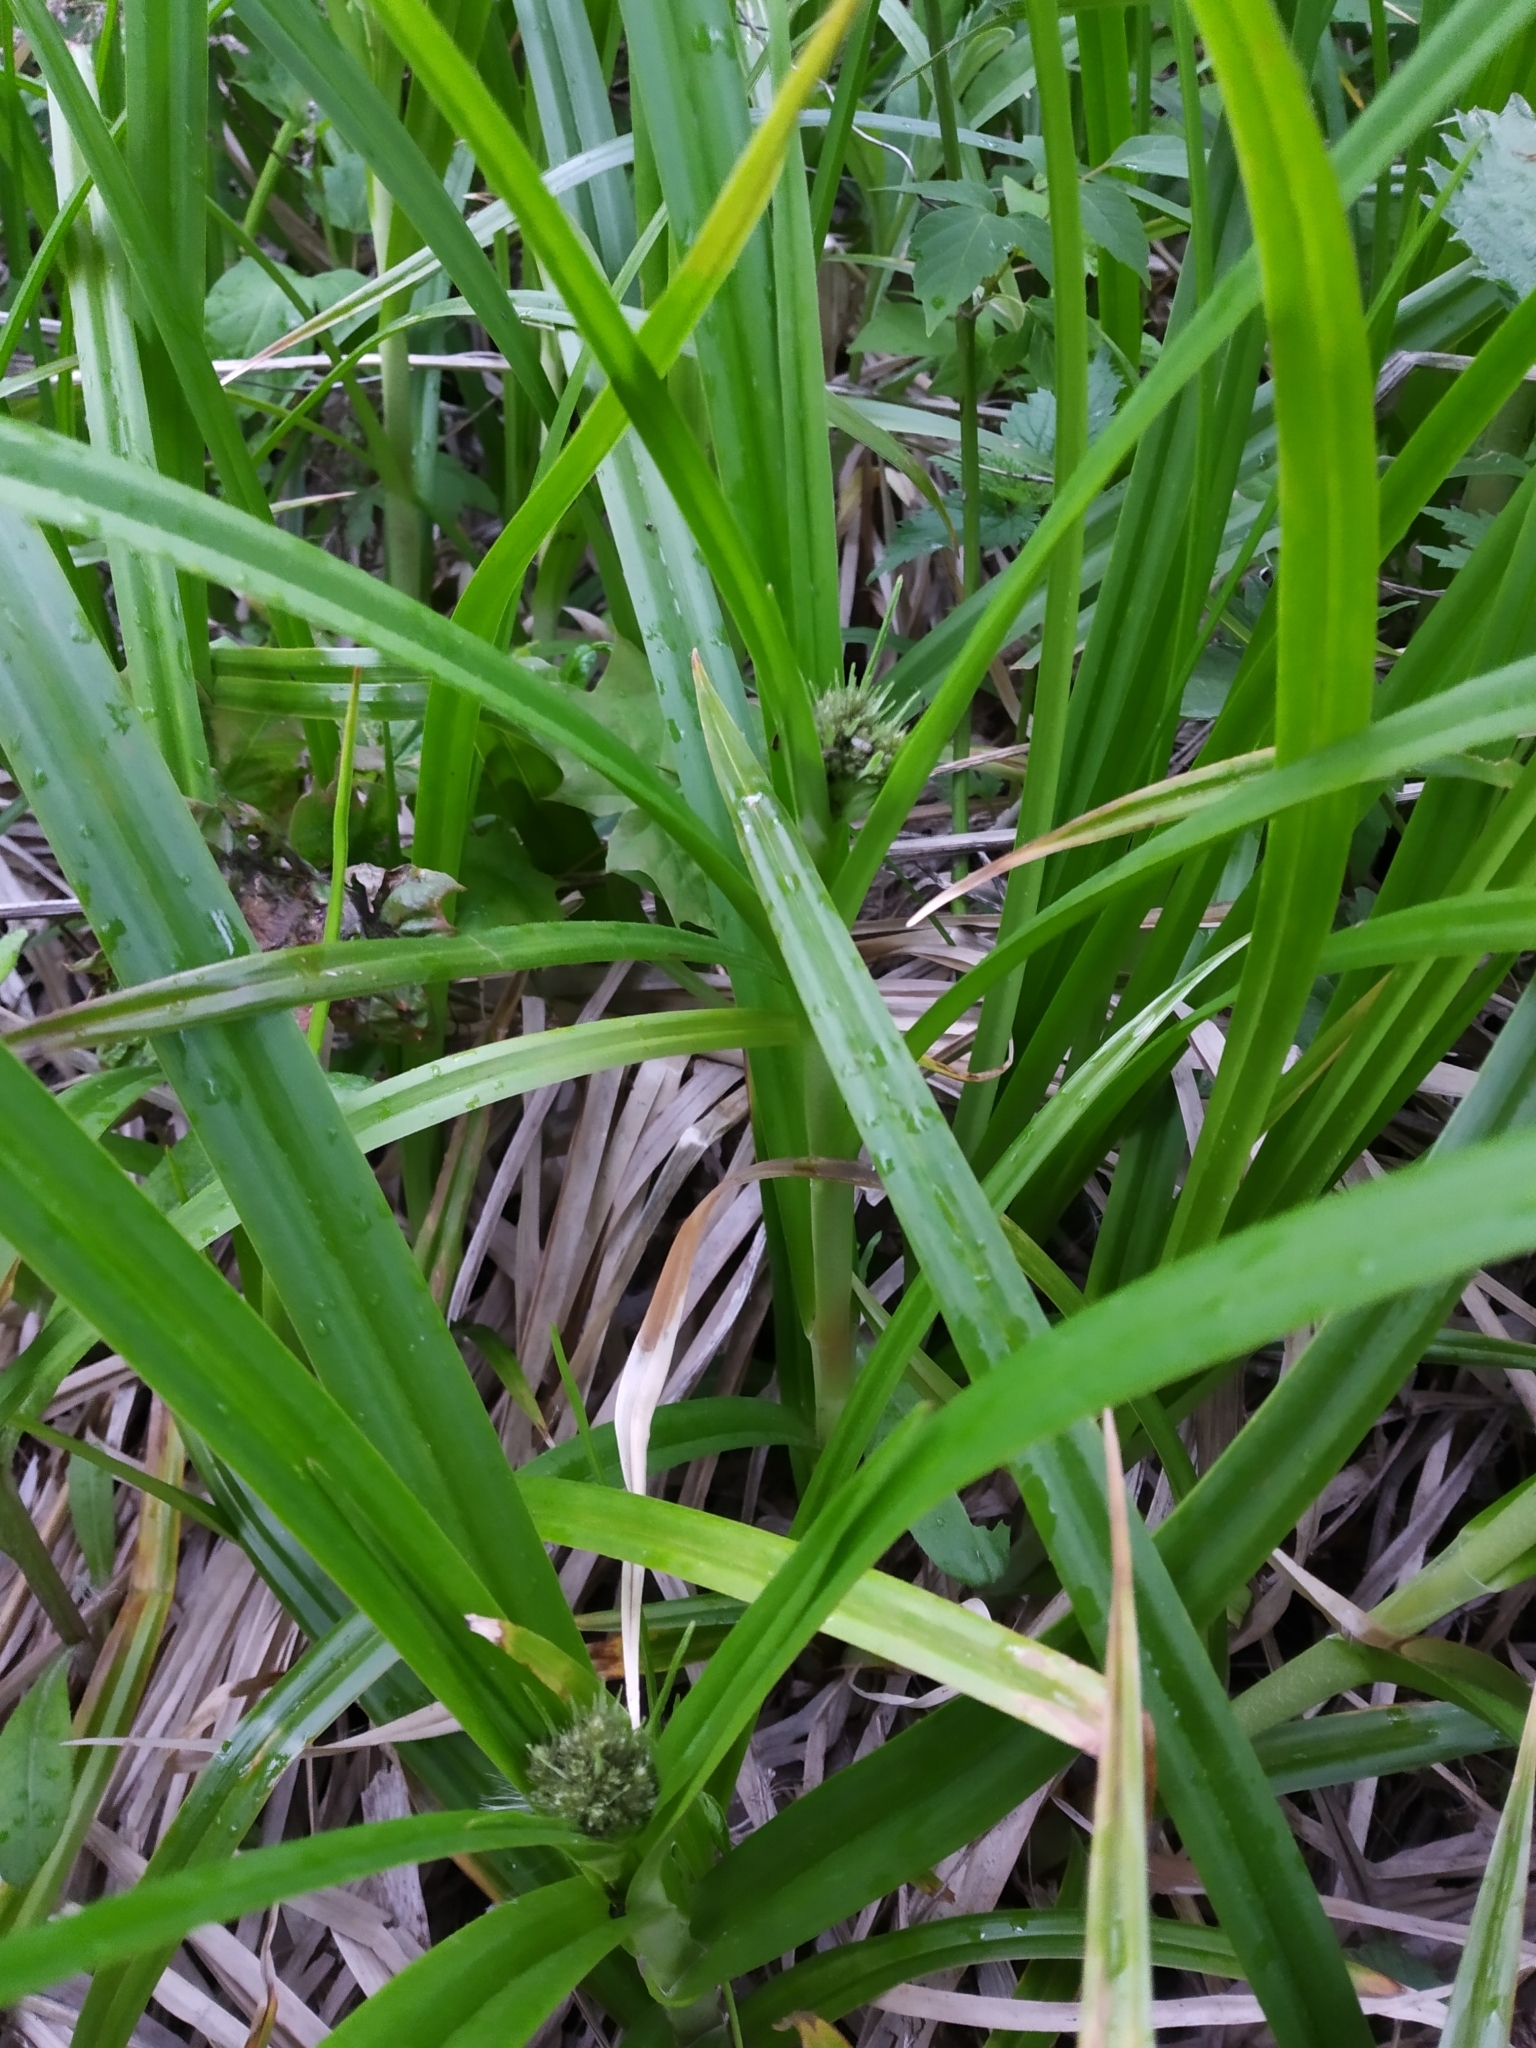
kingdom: Plantae
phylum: Tracheophyta
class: Liliopsida
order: Poales
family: Cyperaceae
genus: Scirpus
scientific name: Scirpus sylvaticus
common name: Wood club-rush
